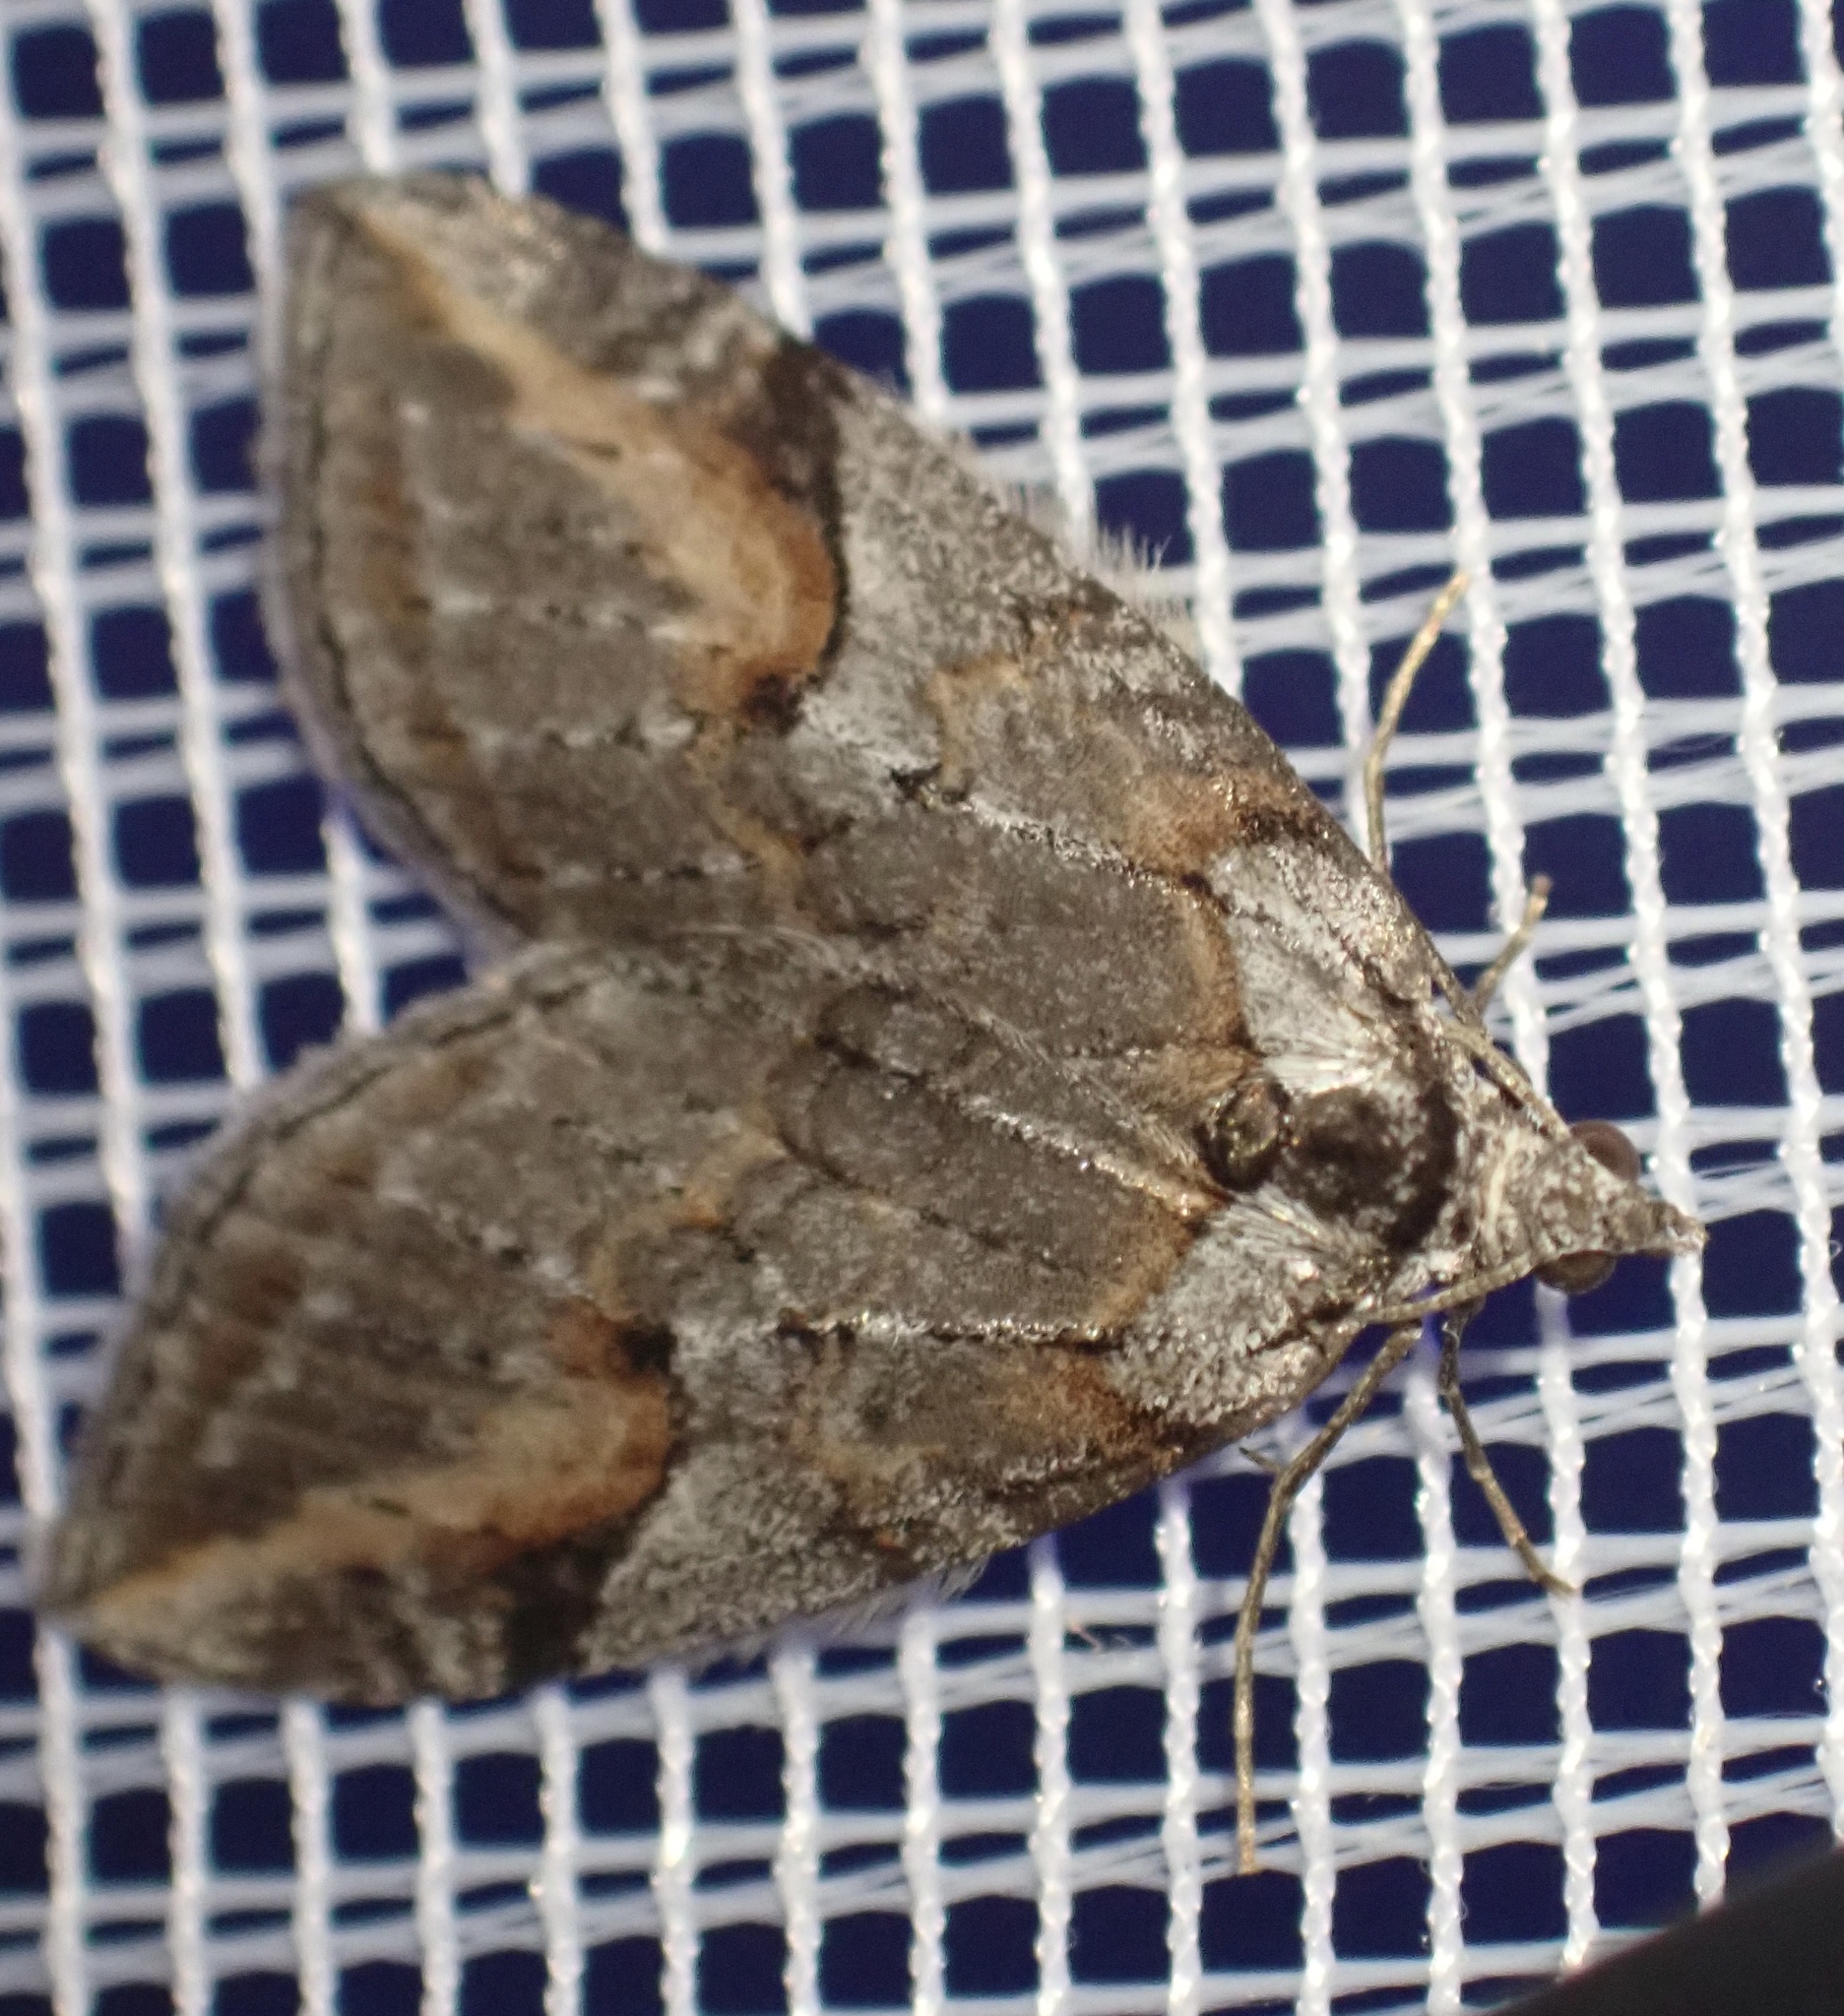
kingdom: Animalia
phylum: Arthropoda
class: Insecta
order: Lepidoptera
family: Geometridae
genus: Chesias
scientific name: Chesias rufata
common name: Broom-tip
